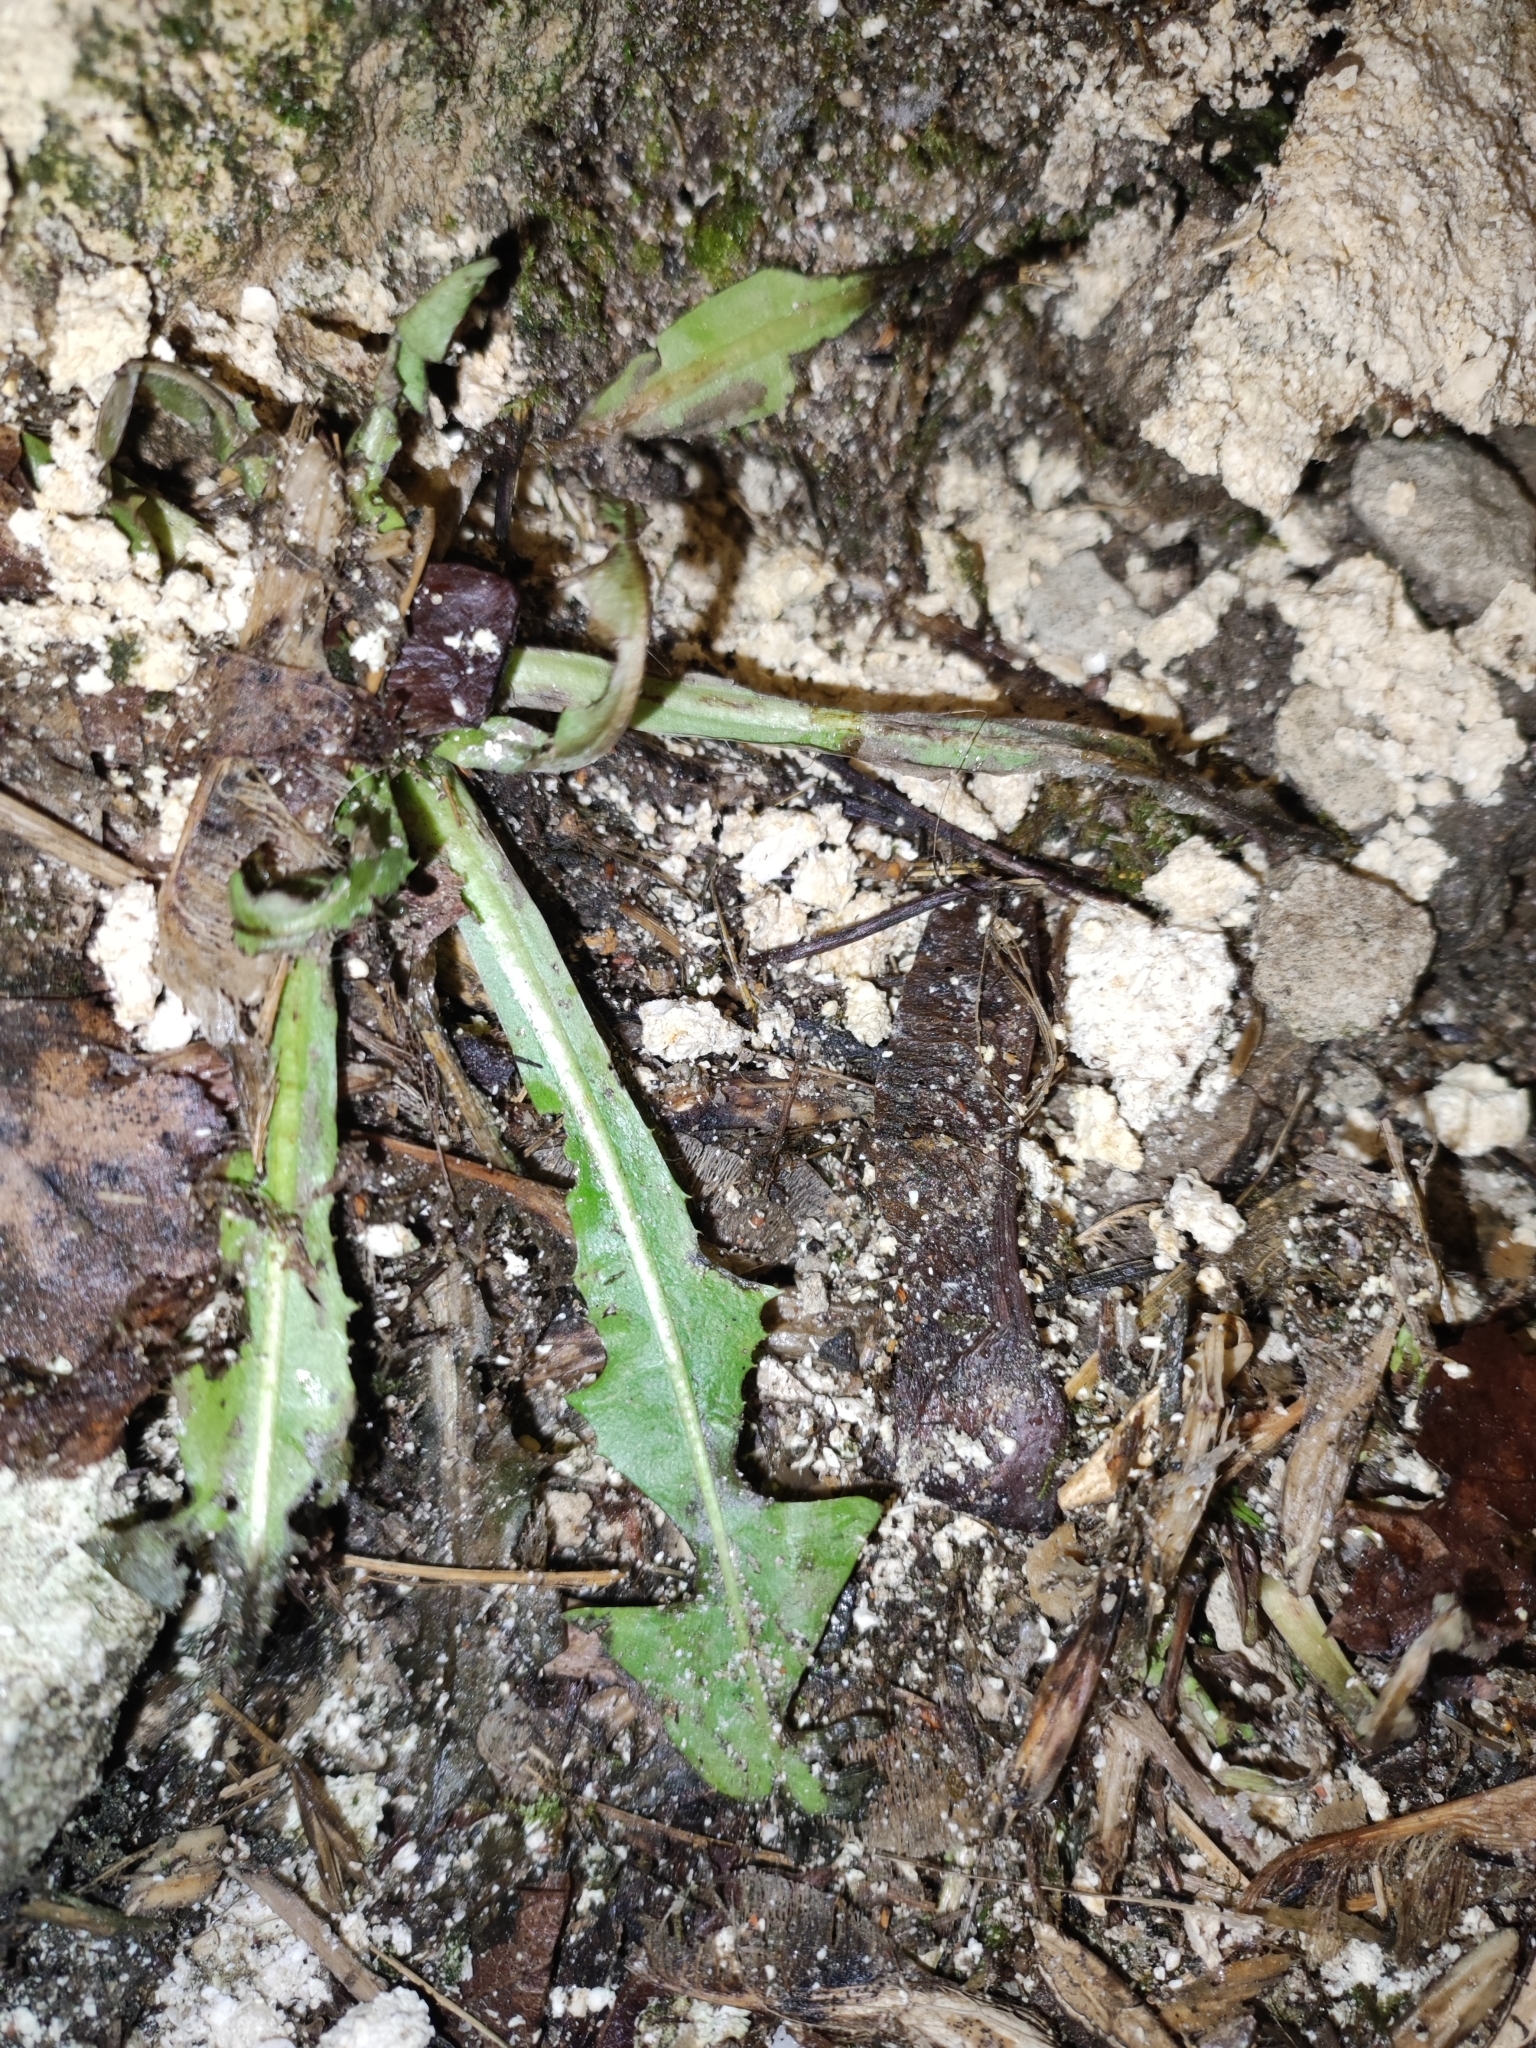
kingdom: Plantae
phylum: Tracheophyta
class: Magnoliopsida
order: Asterales
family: Asteraceae
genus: Taraxacum
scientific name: Taraxacum
